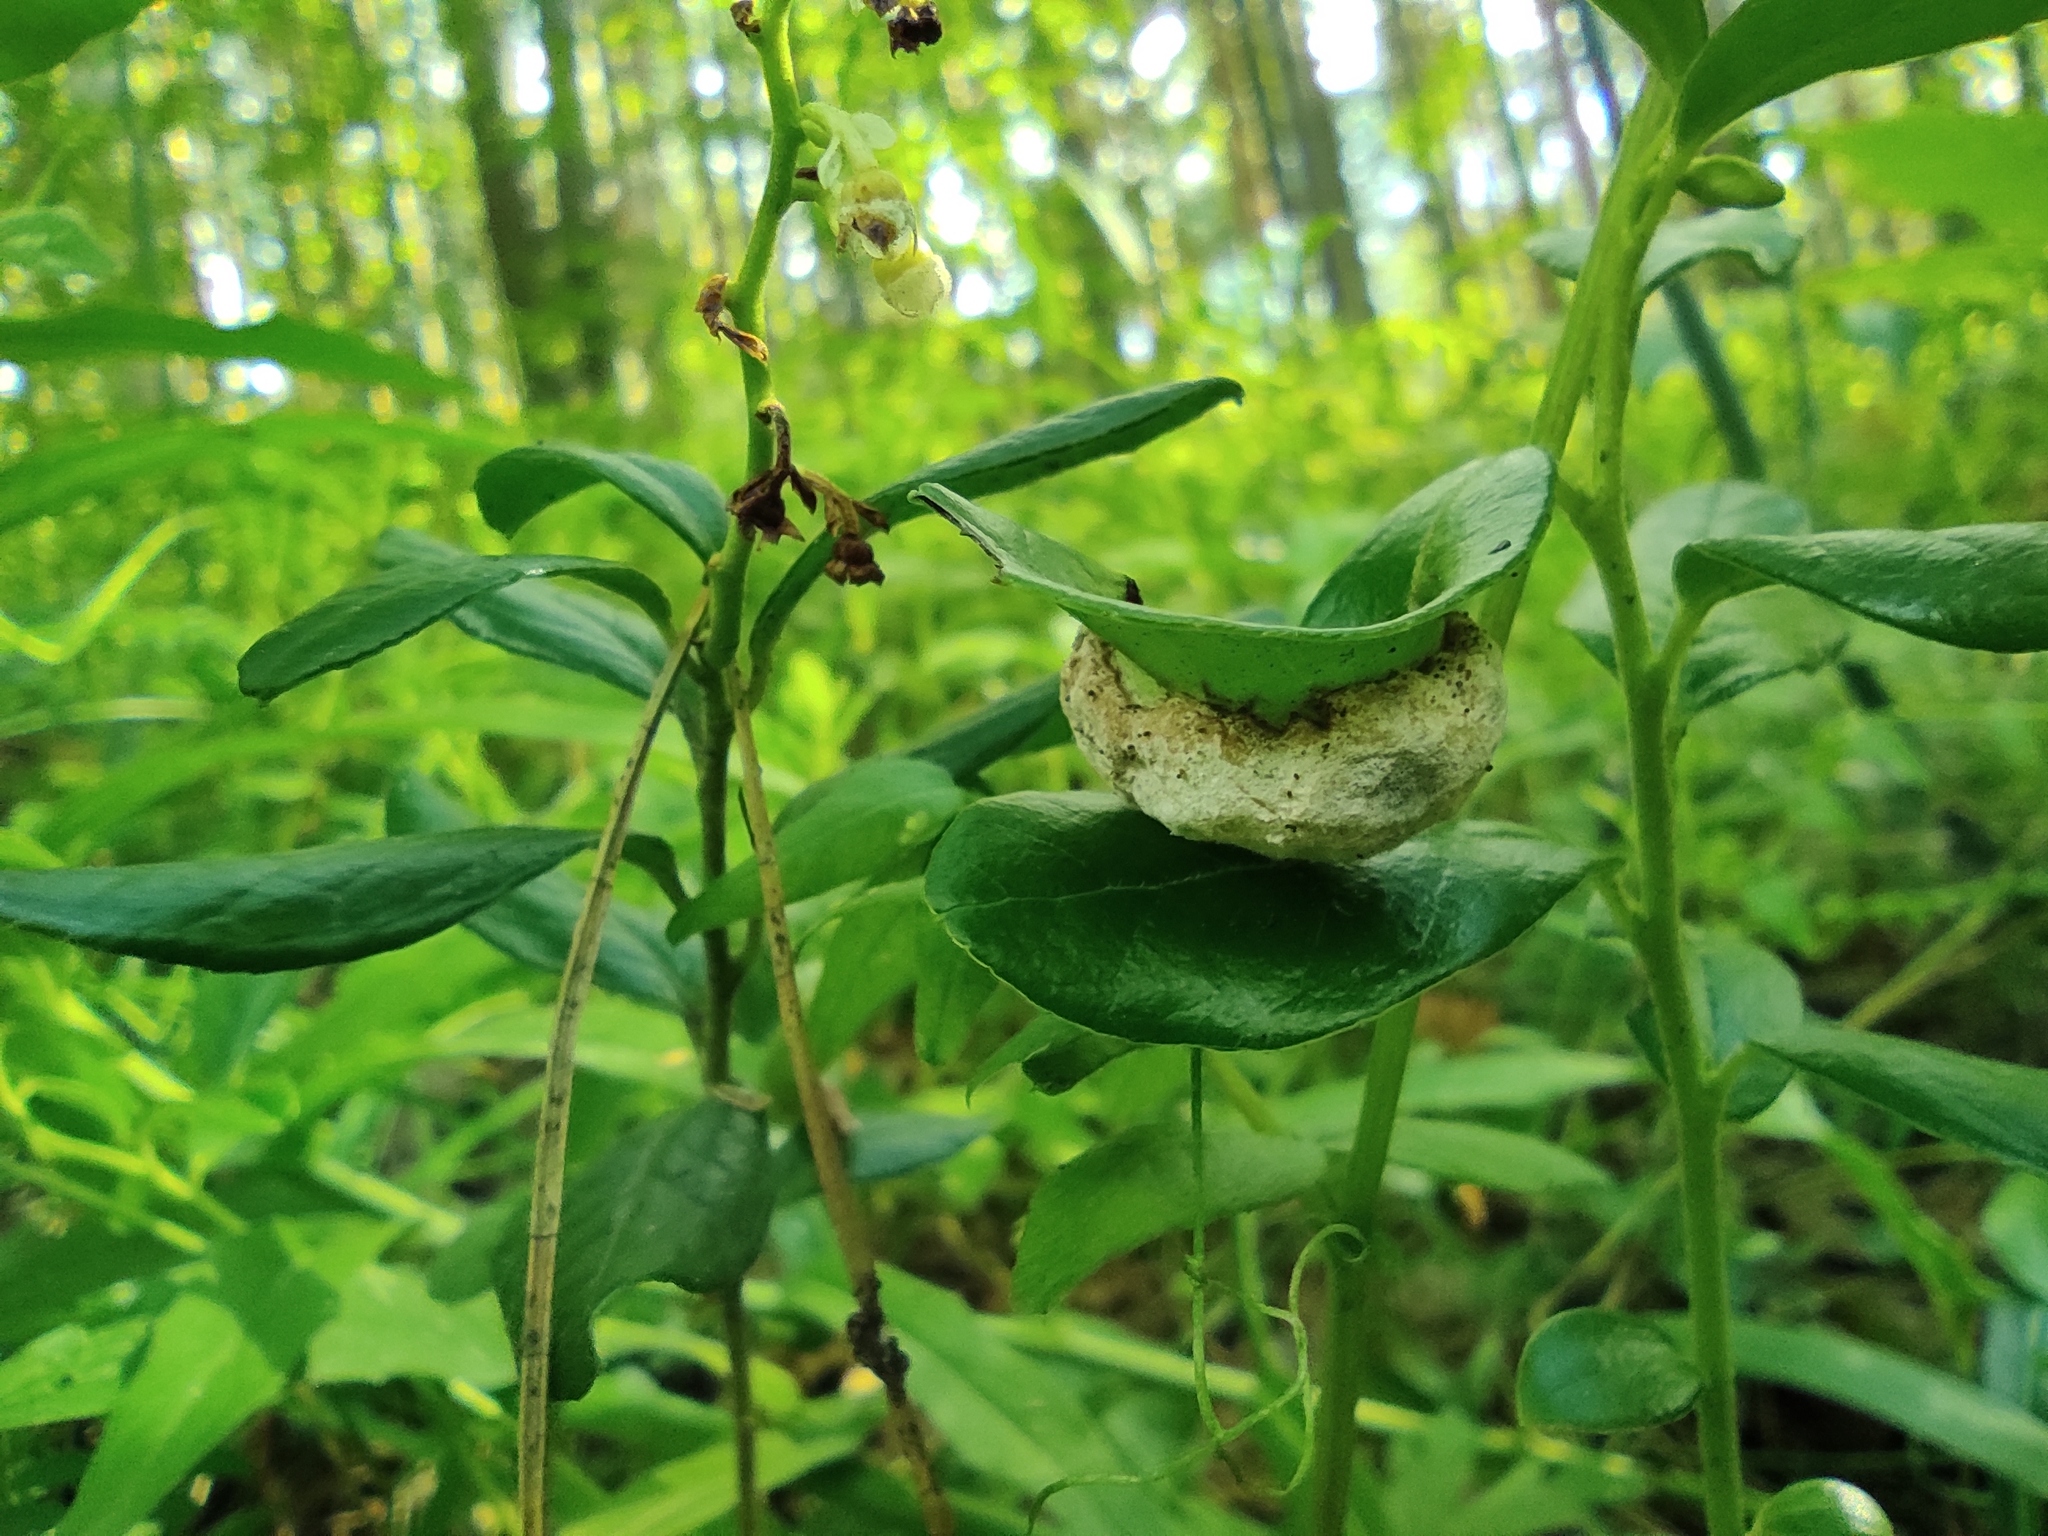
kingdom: Fungi
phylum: Basidiomycota
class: Exobasidiomycetes
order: Exobasidiales
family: Exobasidiaceae
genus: Exobasidium
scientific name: Exobasidium vaccinii
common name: Cowberry redleaf
